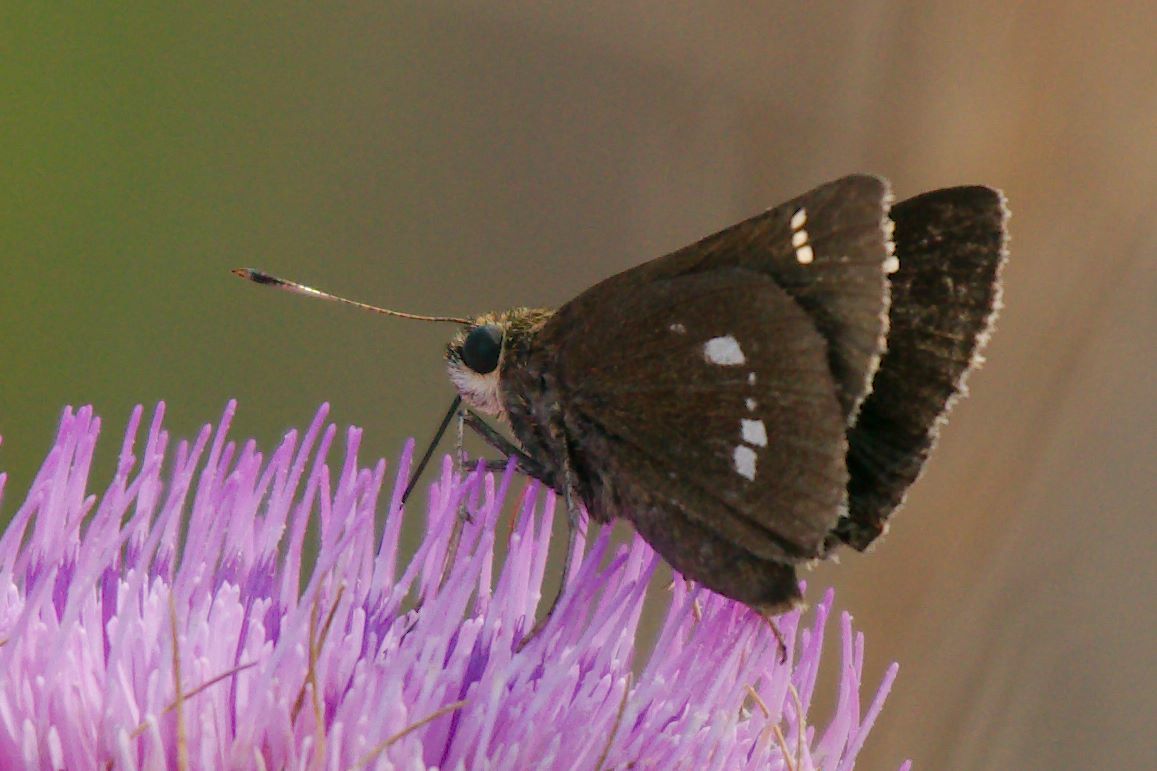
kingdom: Animalia
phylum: Arthropoda
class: Insecta
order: Lepidoptera
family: Hesperiidae
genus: Oligoria
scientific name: Oligoria maculata
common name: Twin-spot skipper
